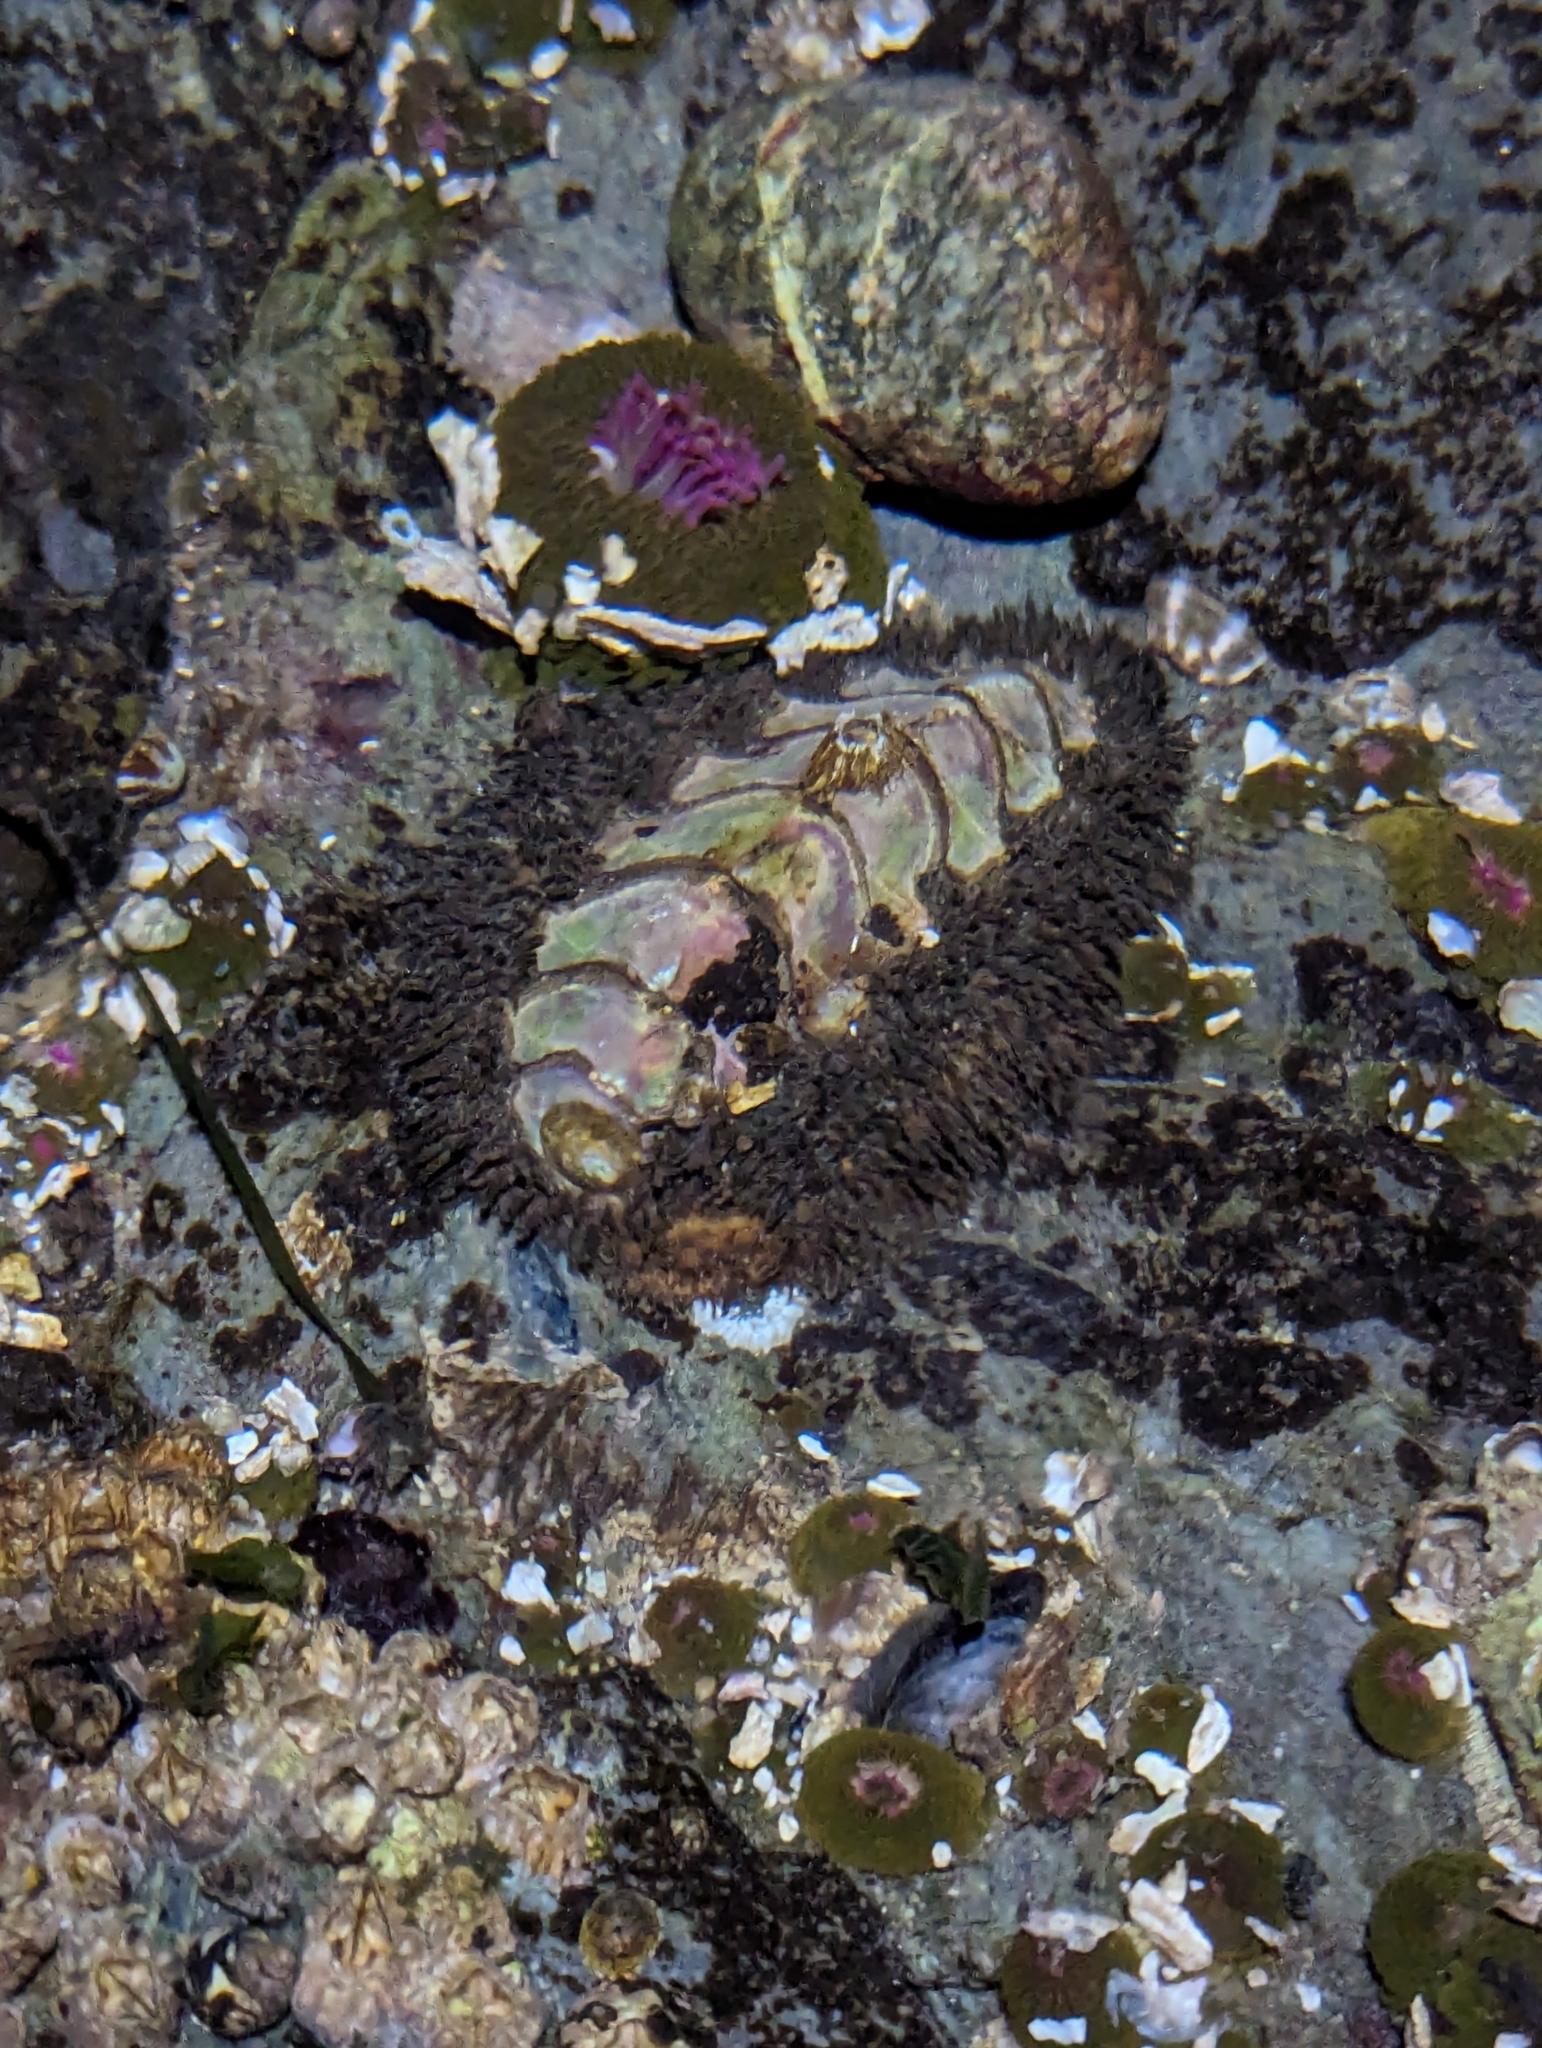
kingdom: Animalia
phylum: Mollusca
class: Polyplacophora
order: Chitonida
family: Mopaliidae
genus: Mopalia
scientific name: Mopalia muscosa
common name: Mossy chiton
